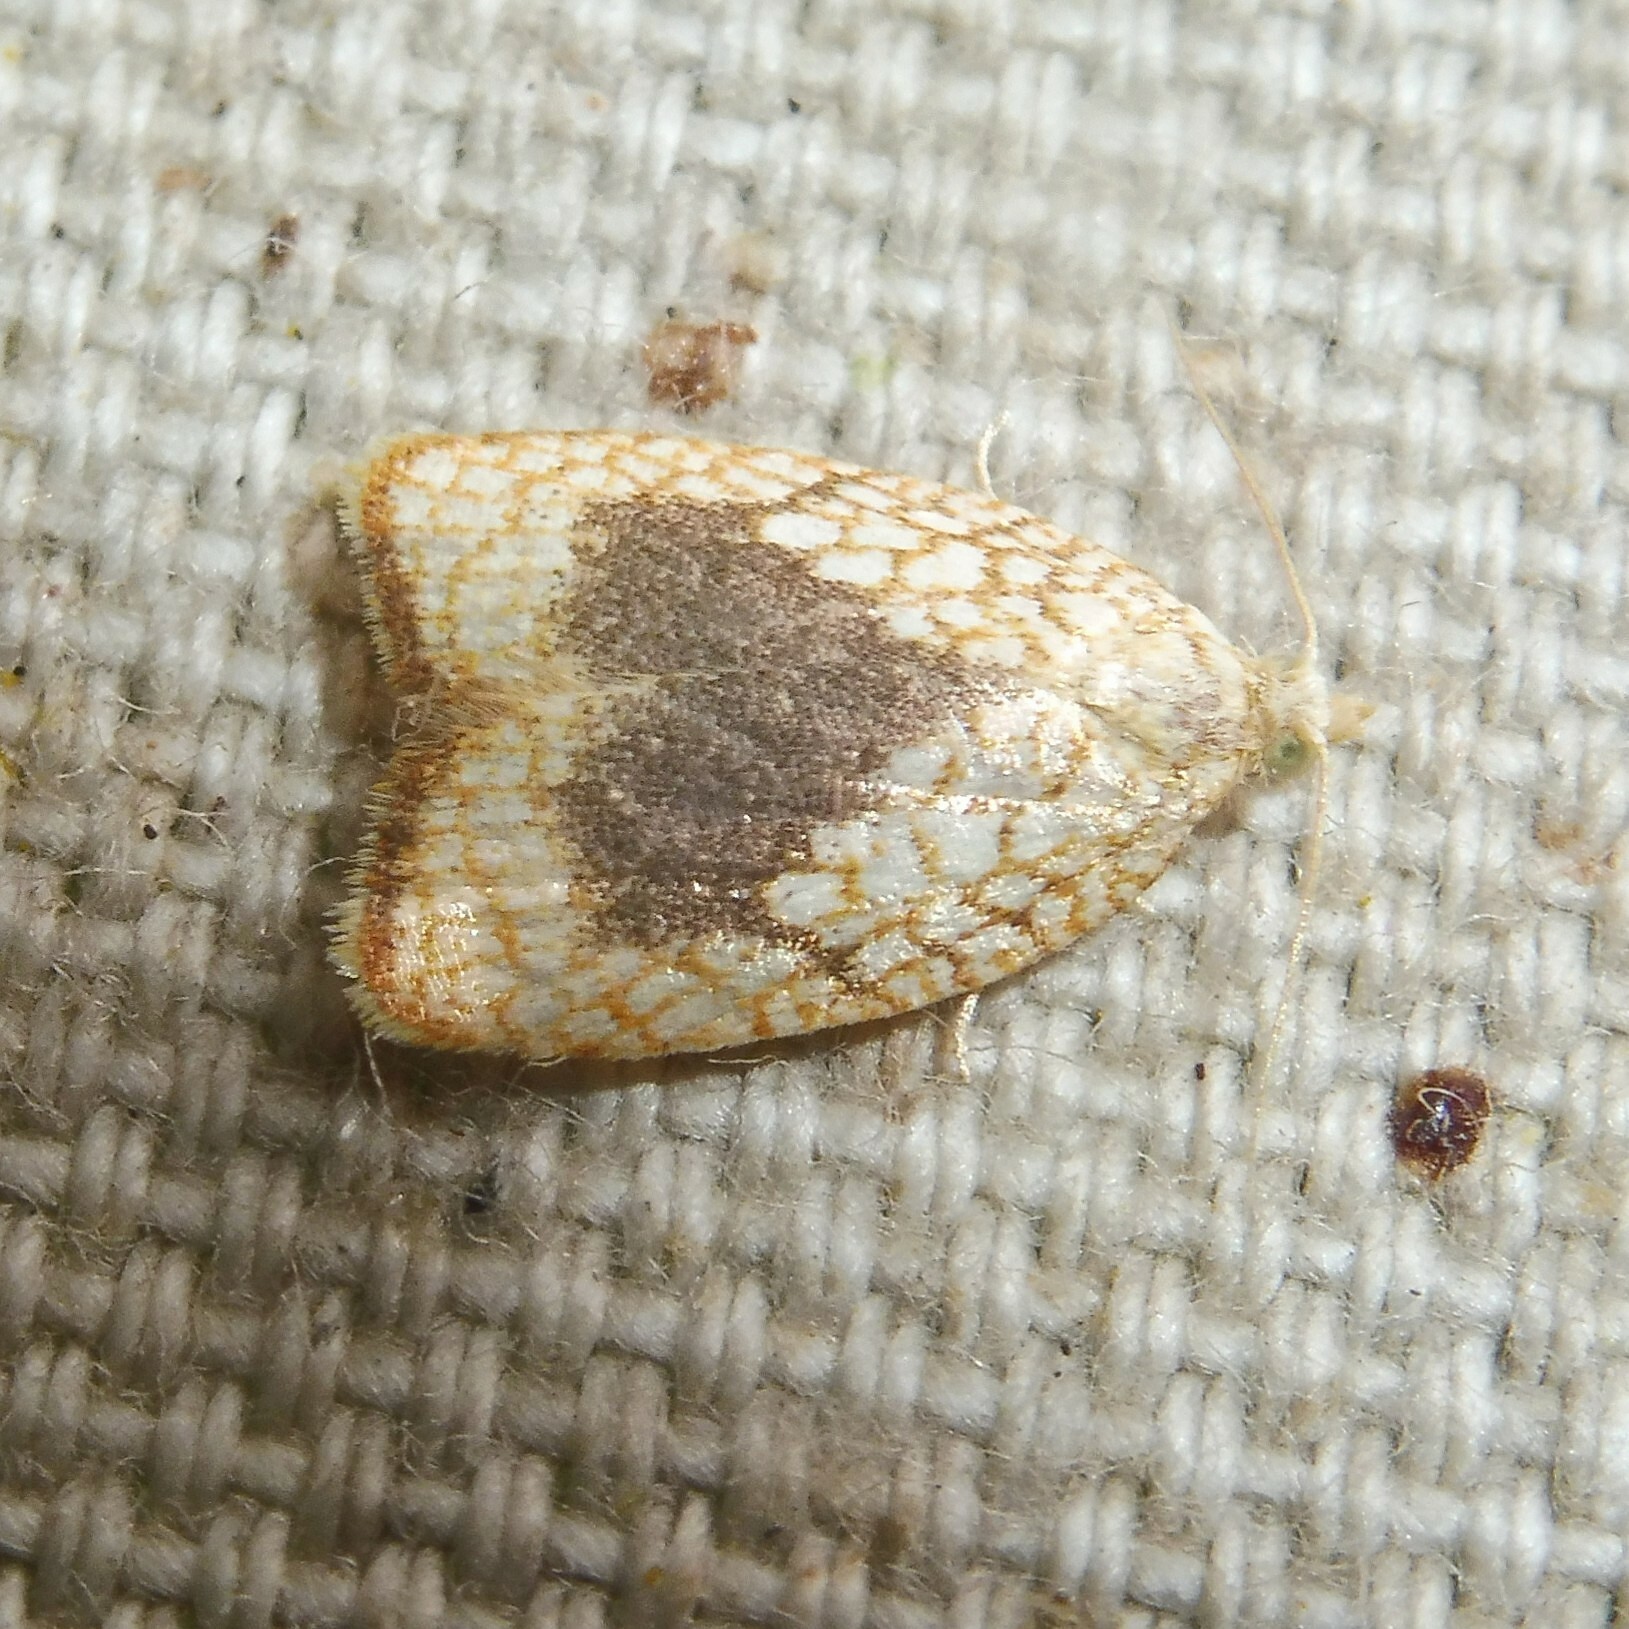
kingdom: Animalia
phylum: Arthropoda
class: Insecta
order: Lepidoptera
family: Tortricidae
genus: Acleris
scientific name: Acleris forsskaleana
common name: Maple button
